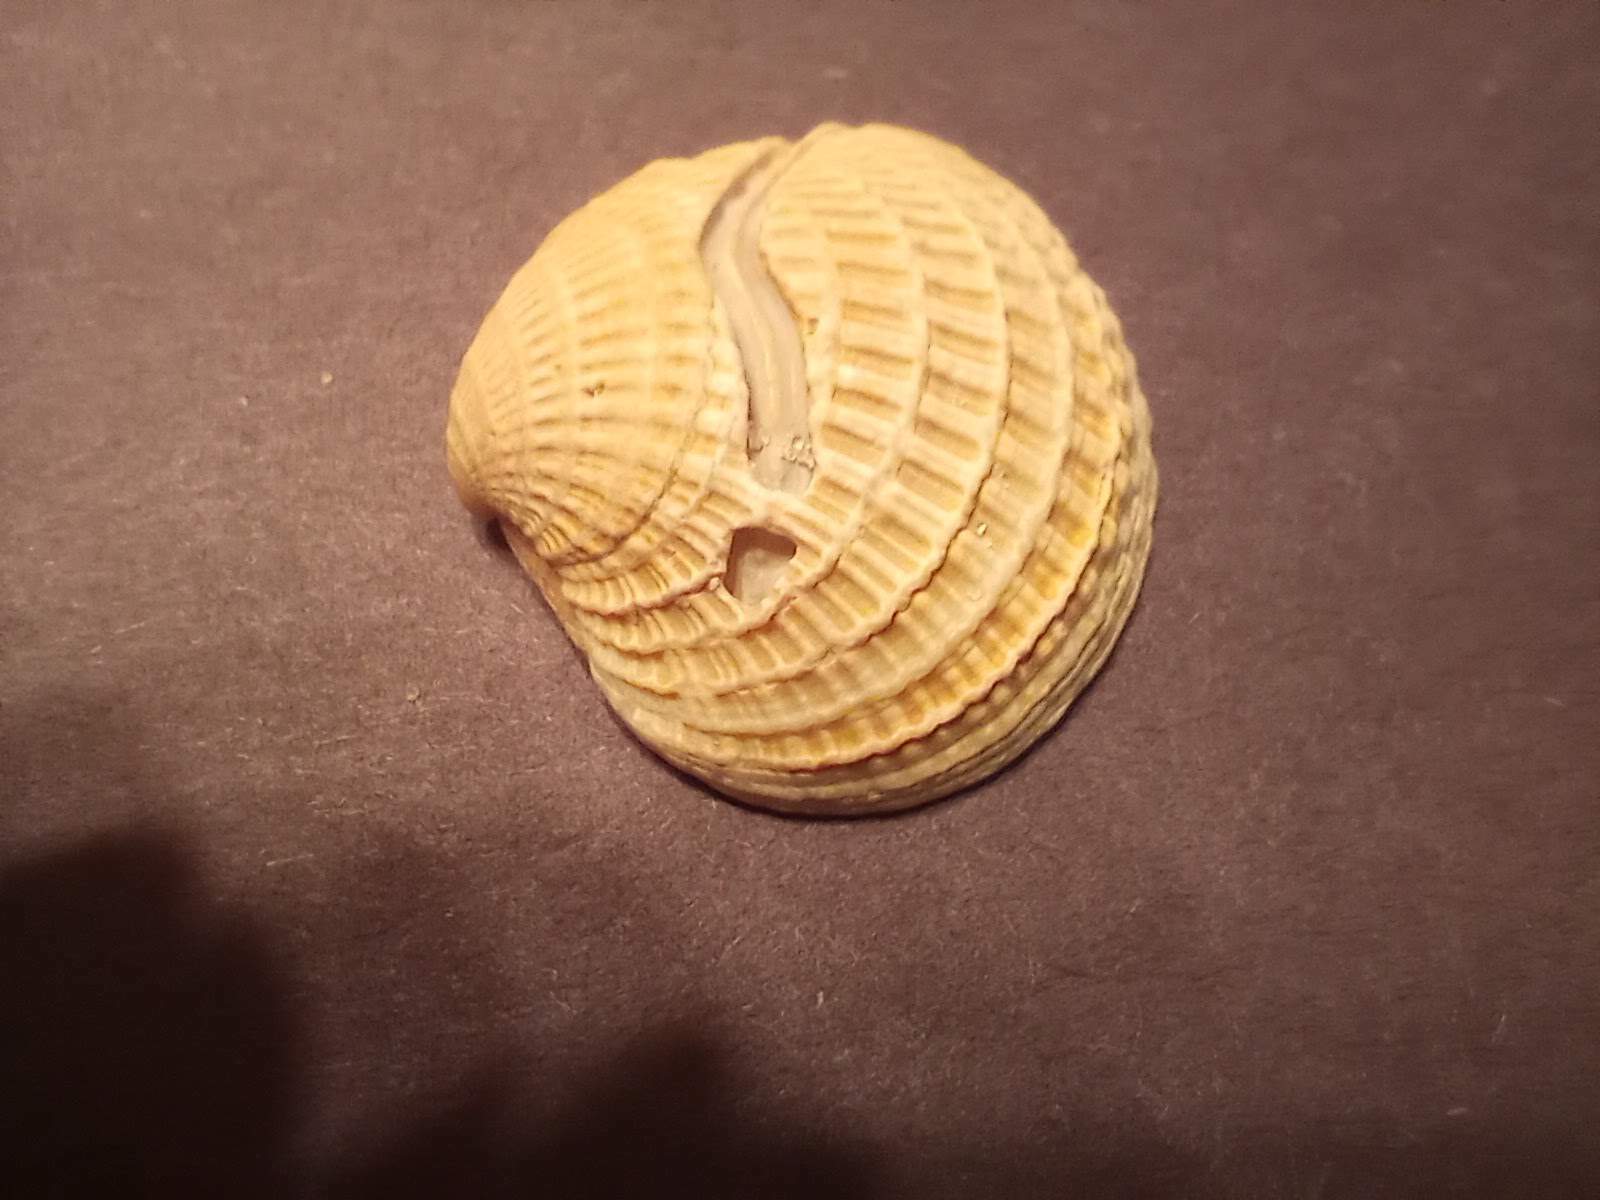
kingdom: Animalia
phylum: Mollusca
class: Bivalvia
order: Venerida
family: Veneridae
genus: Chione
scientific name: Chione elevata
